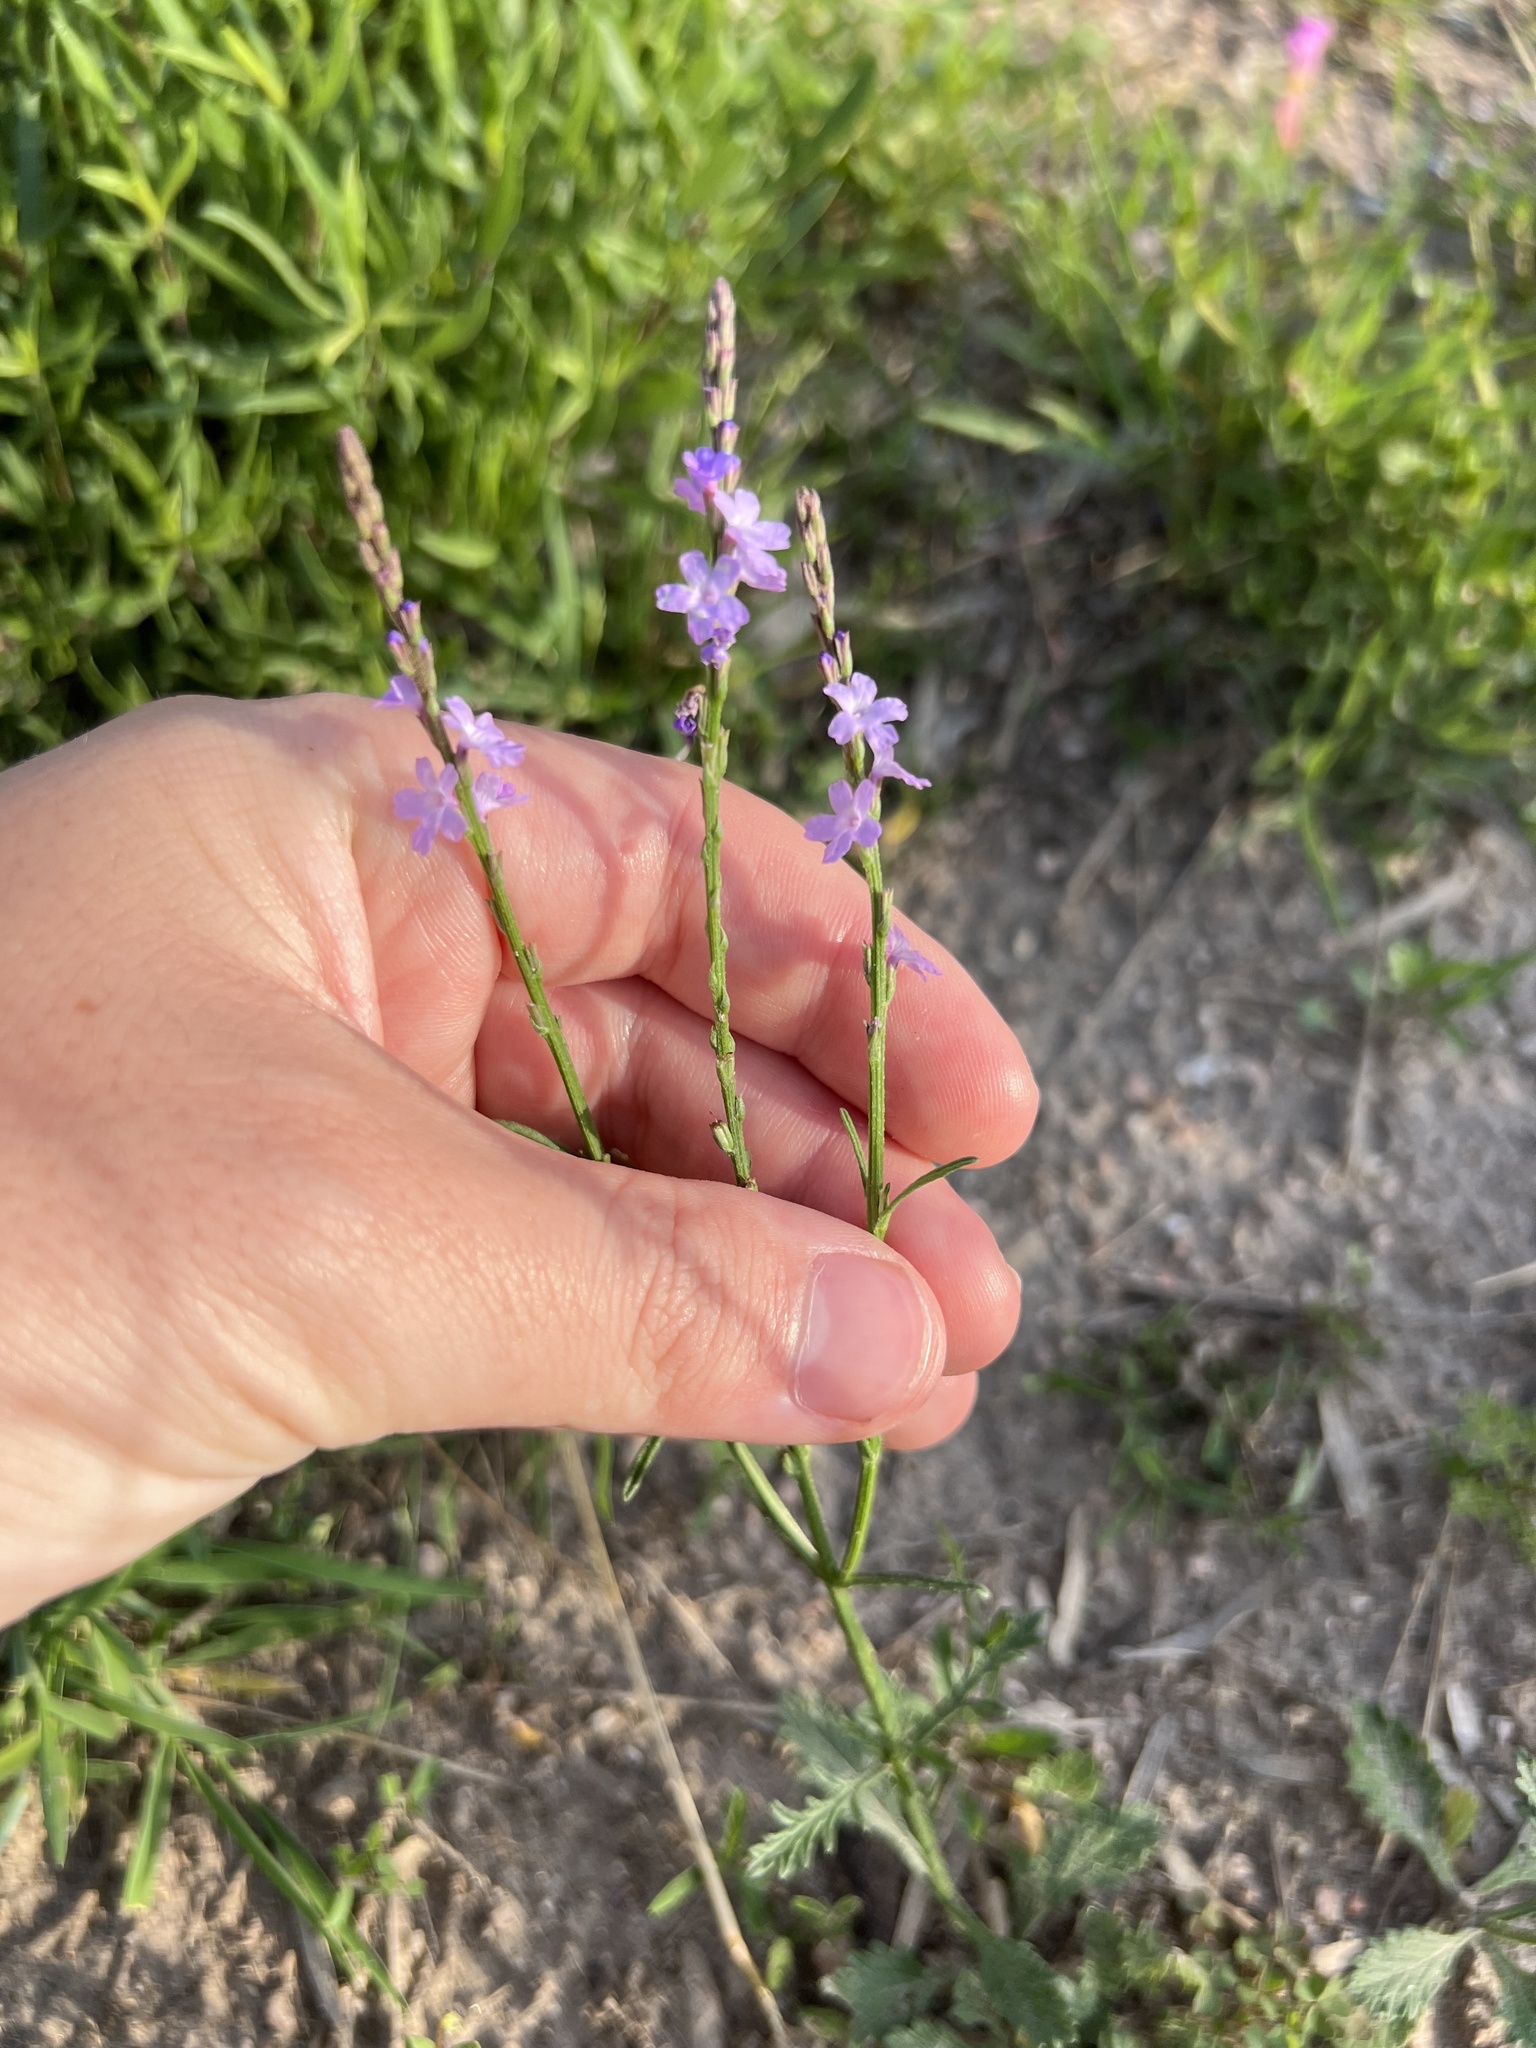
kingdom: Plantae
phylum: Tracheophyta
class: Magnoliopsida
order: Lamiales
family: Verbenaceae
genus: Verbena
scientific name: Verbena halei
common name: Texas vervain
